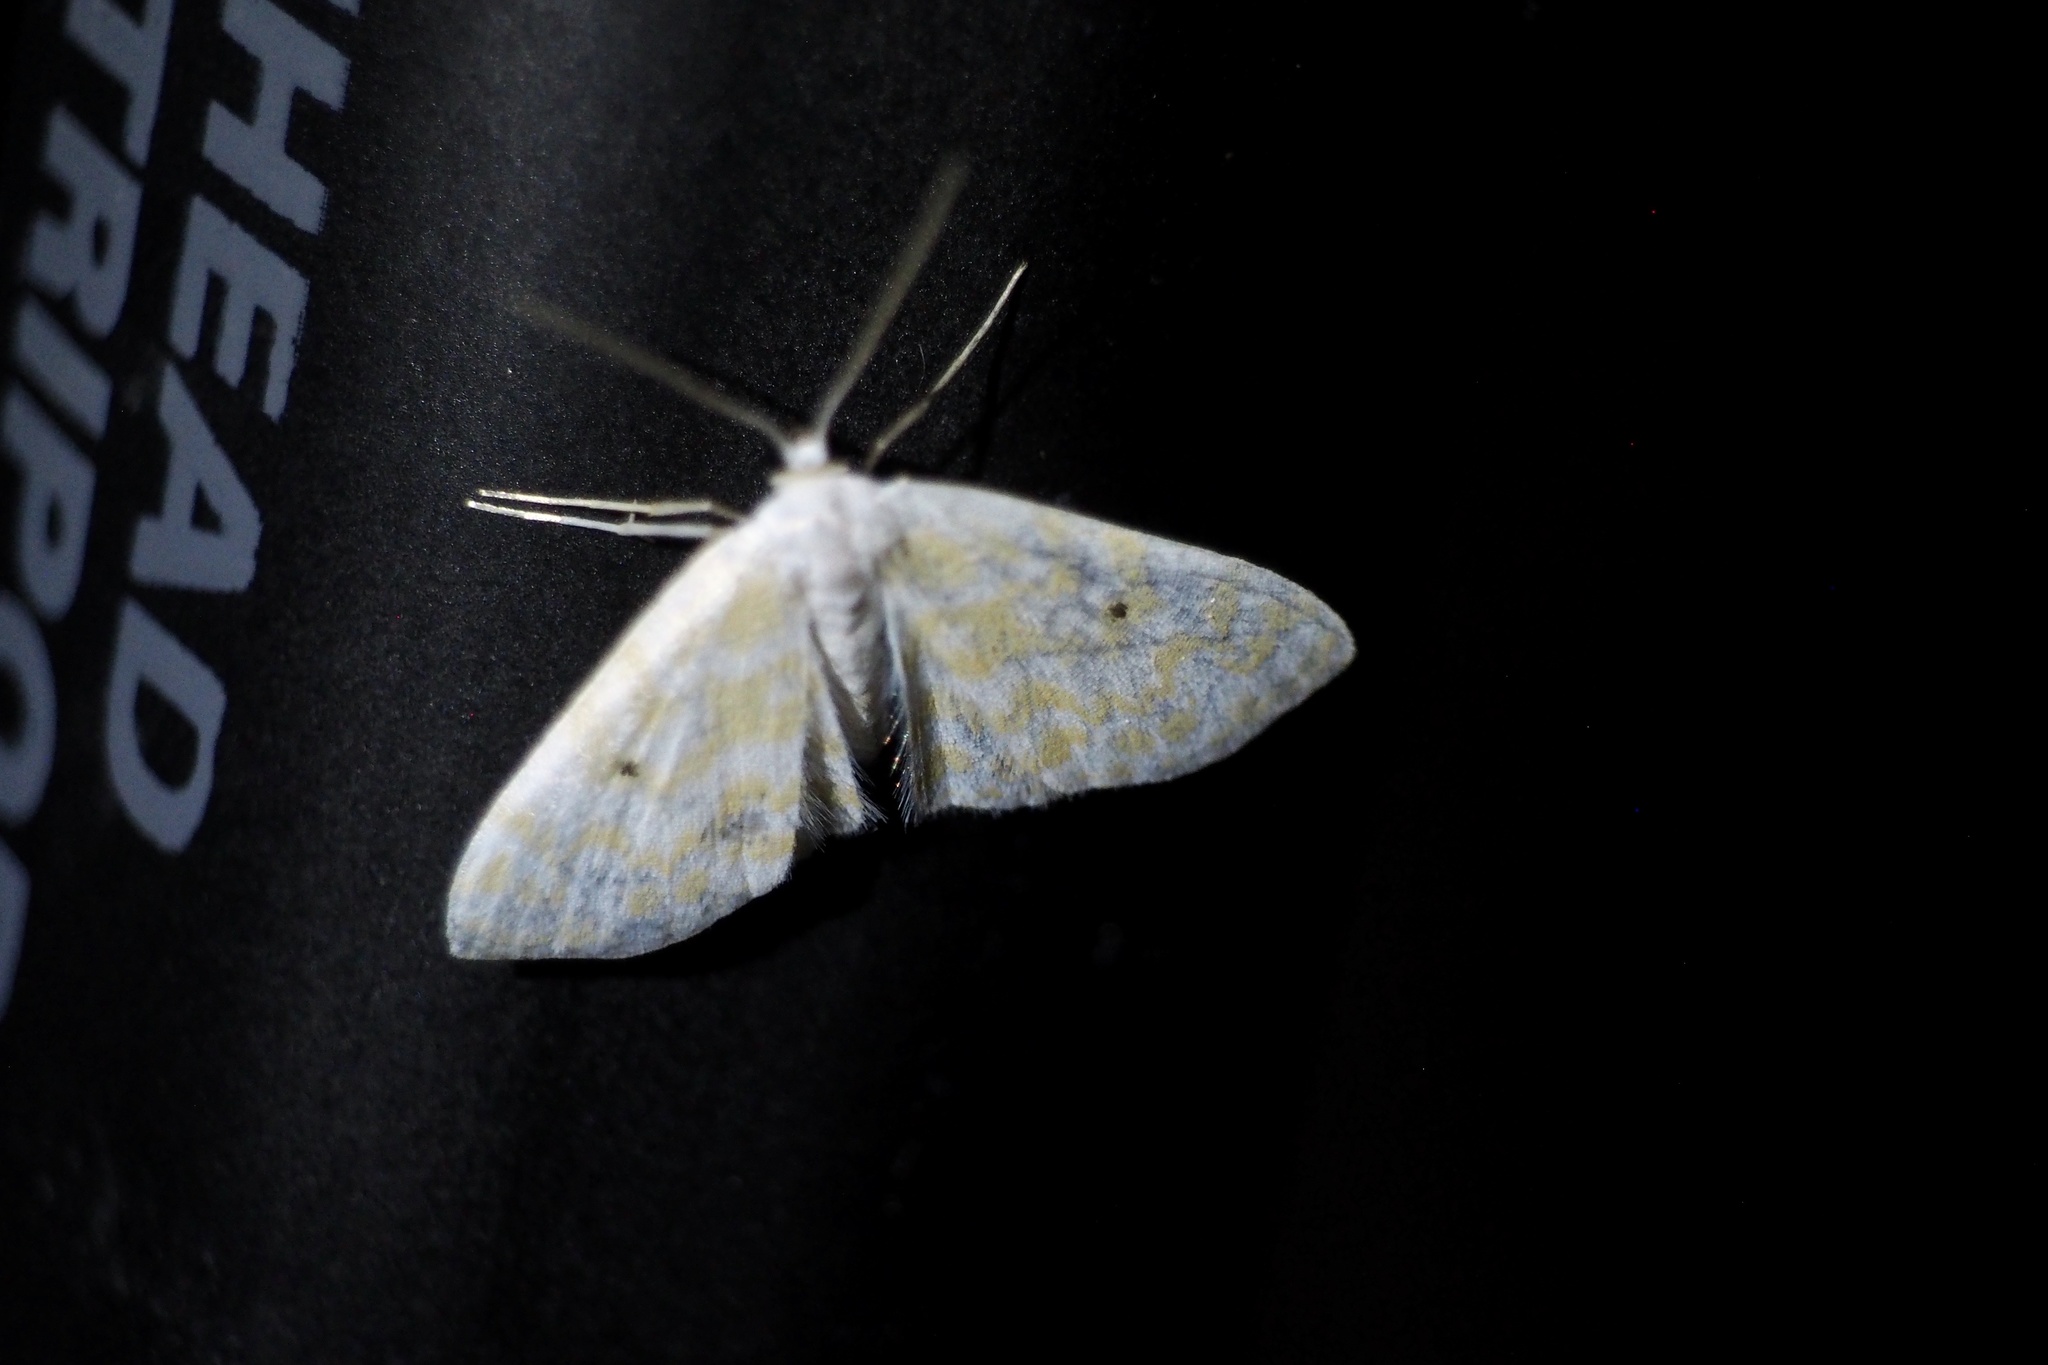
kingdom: Animalia
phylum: Arthropoda
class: Insecta
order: Lepidoptera
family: Geometridae
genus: Scopula
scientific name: Scopula confusa
